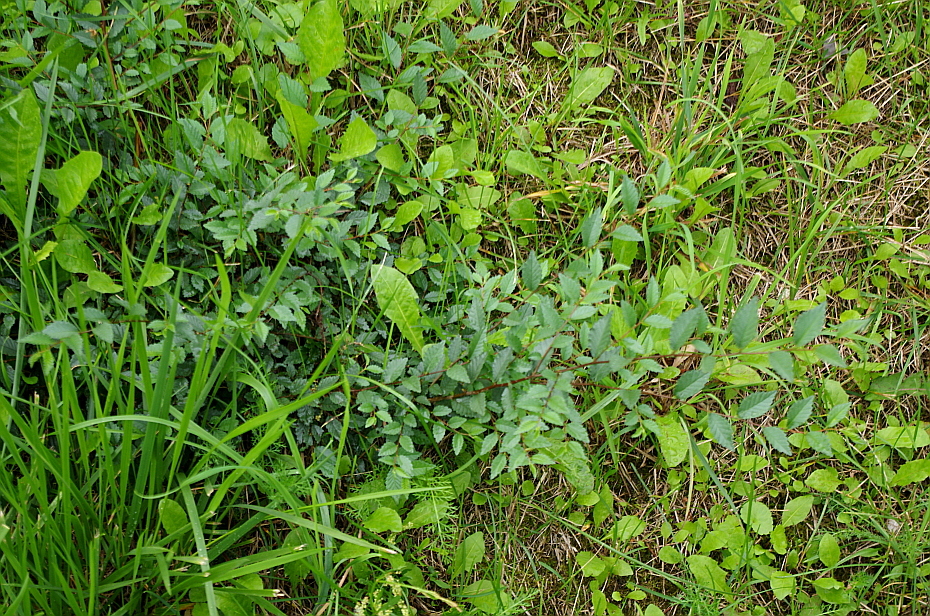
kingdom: Plantae
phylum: Tracheophyta
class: Magnoliopsida
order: Rosales
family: Ulmaceae
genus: Ulmus
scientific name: Ulmus pumila
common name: Siberian elm
